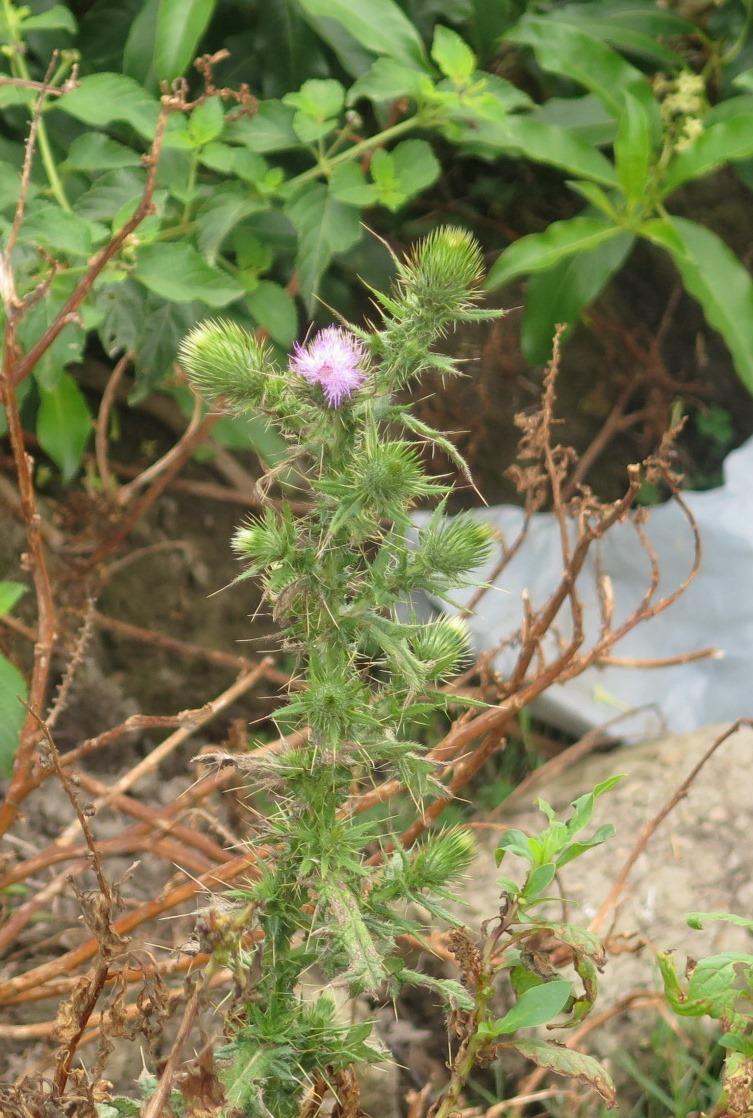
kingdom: Plantae
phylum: Tracheophyta
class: Magnoliopsida
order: Asterales
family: Asteraceae
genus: Cirsium
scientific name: Cirsium vulgare
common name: Bull thistle
